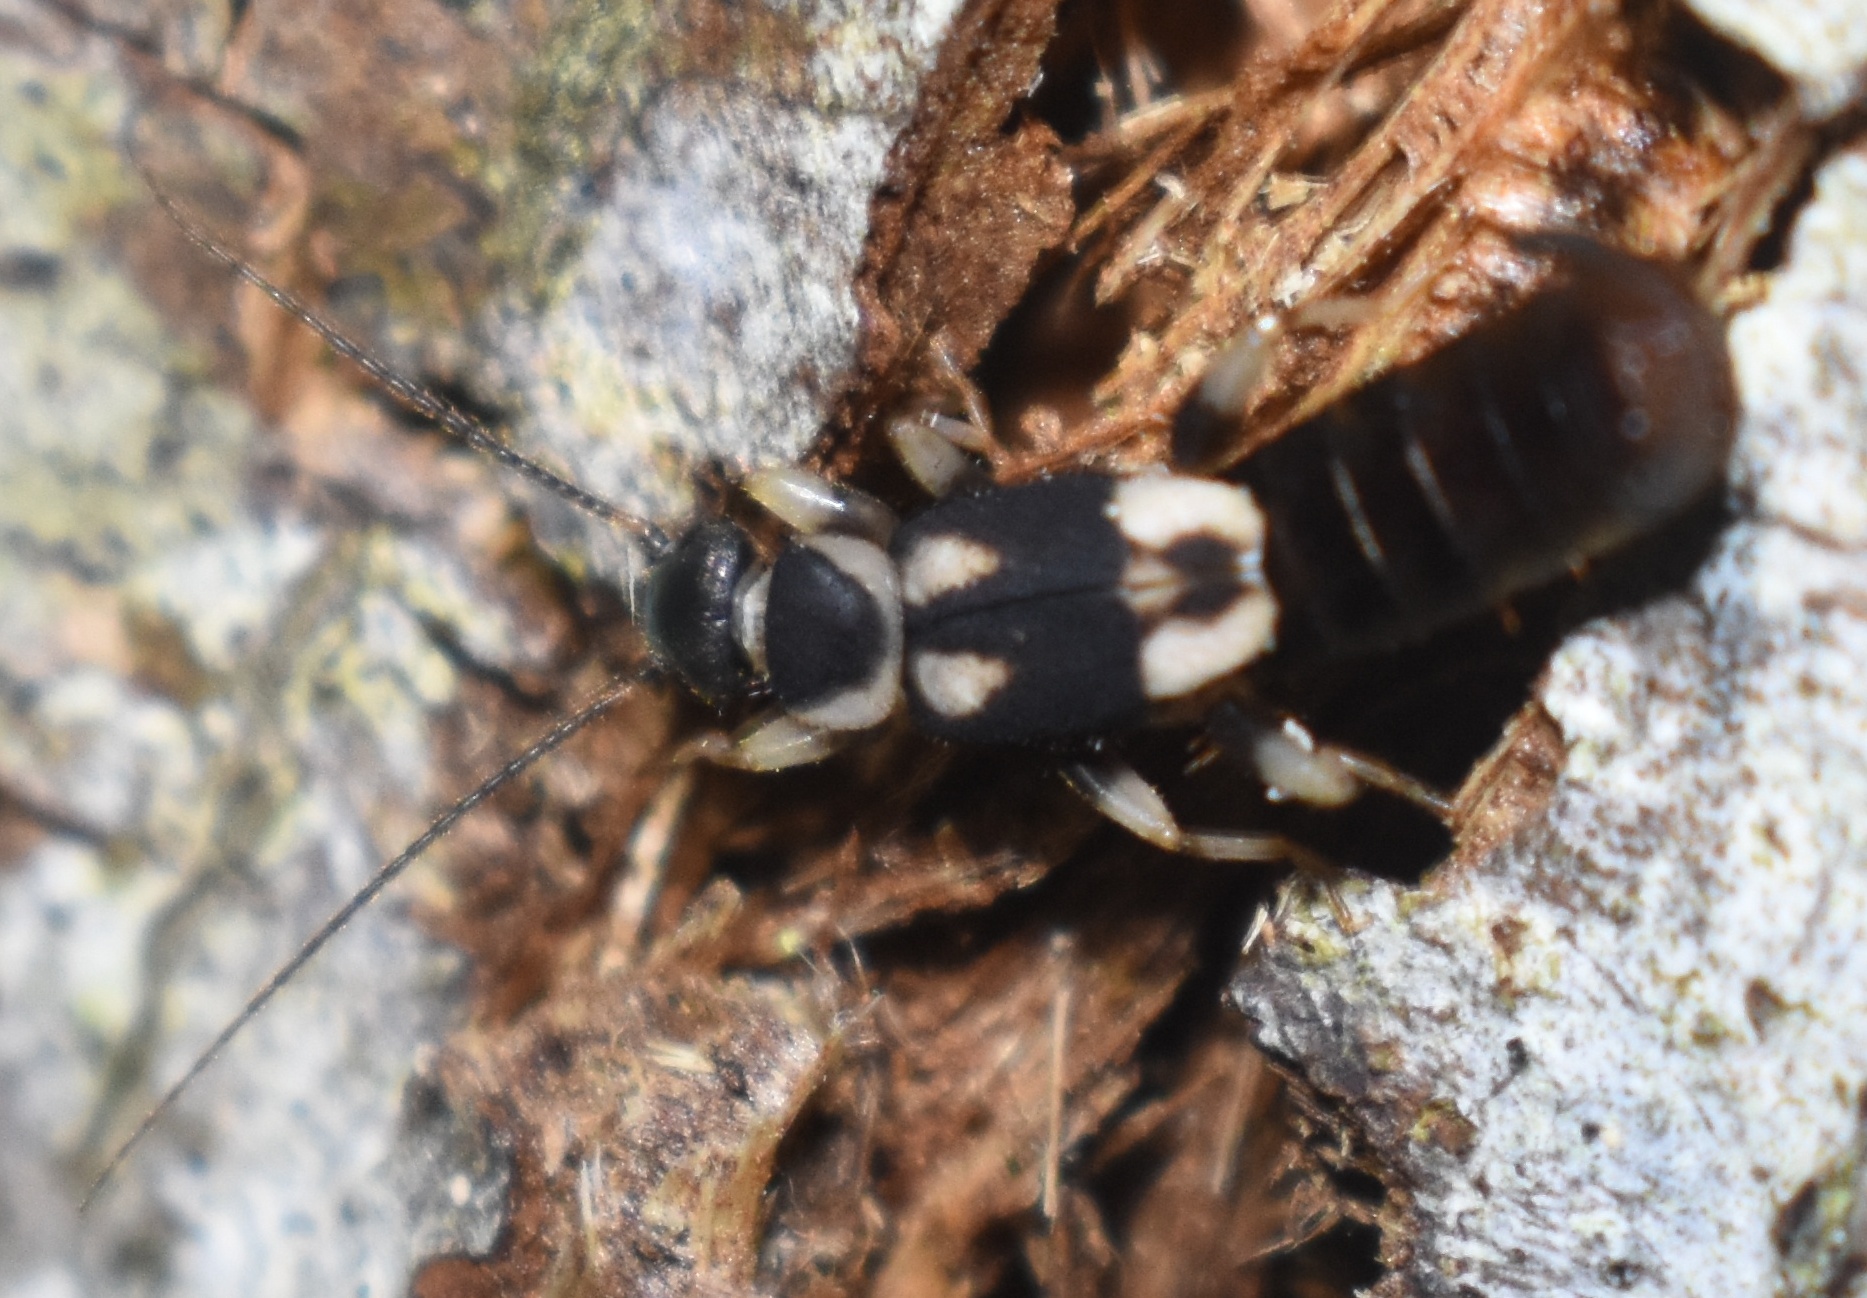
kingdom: Animalia
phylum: Arthropoda
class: Insecta
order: Dermaptera
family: Pygidicranidae
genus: Echinopsalis
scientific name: Echinopsalis guttata
